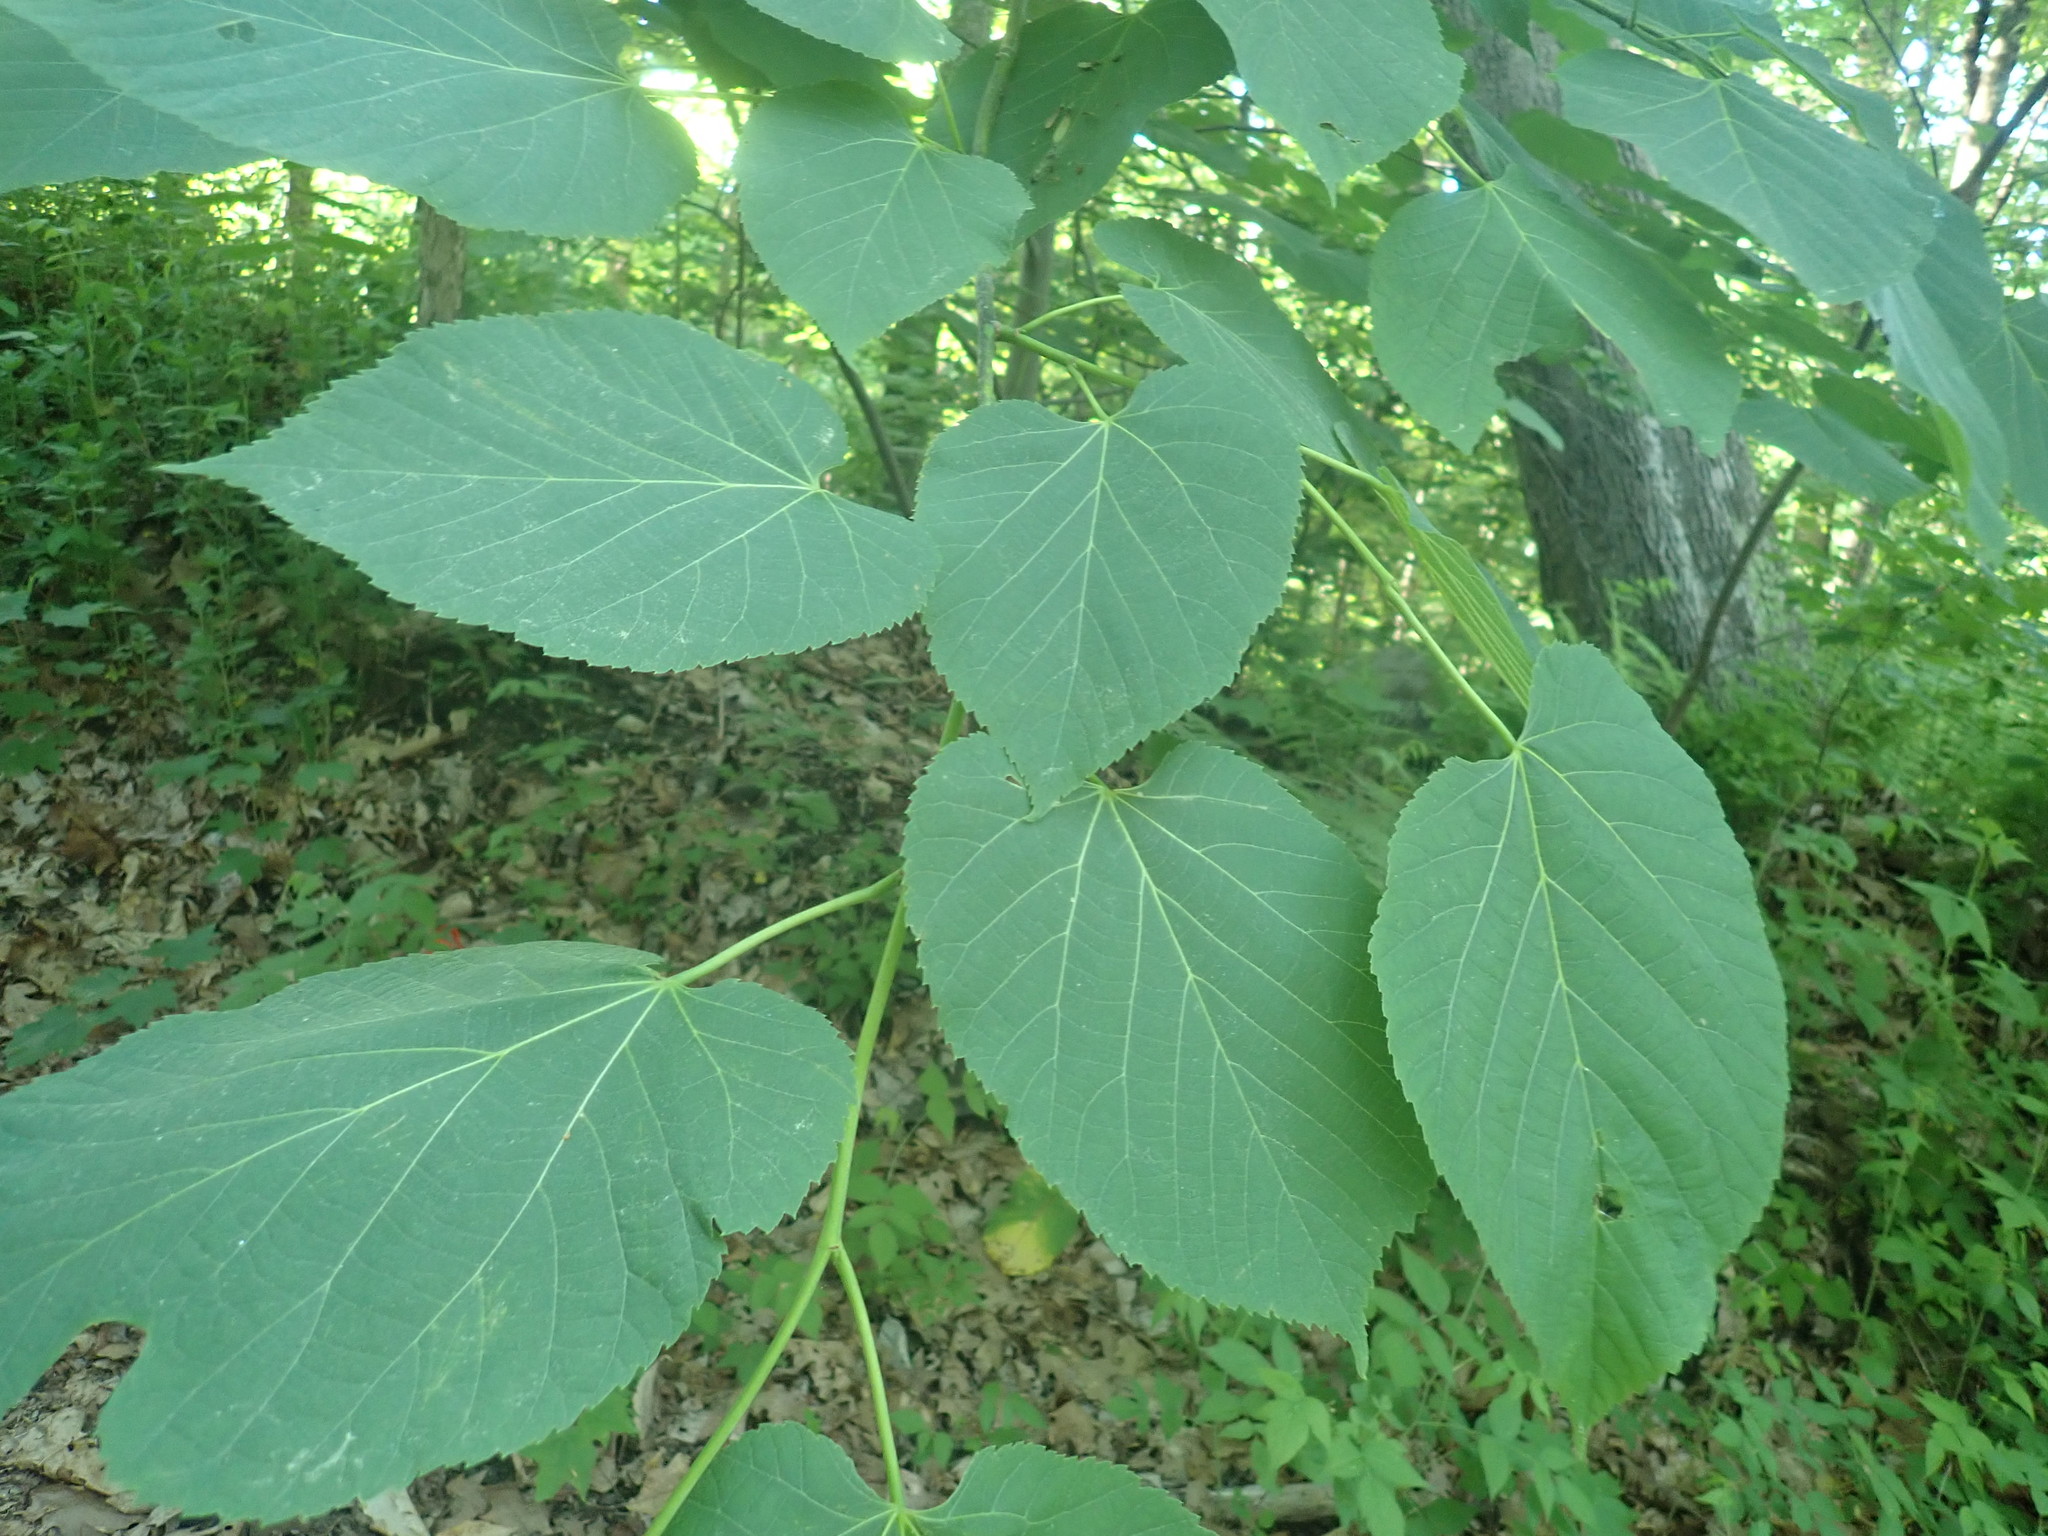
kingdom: Plantae
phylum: Tracheophyta
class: Magnoliopsida
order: Malvales
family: Malvaceae
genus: Tilia
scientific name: Tilia americana
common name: Basswood
